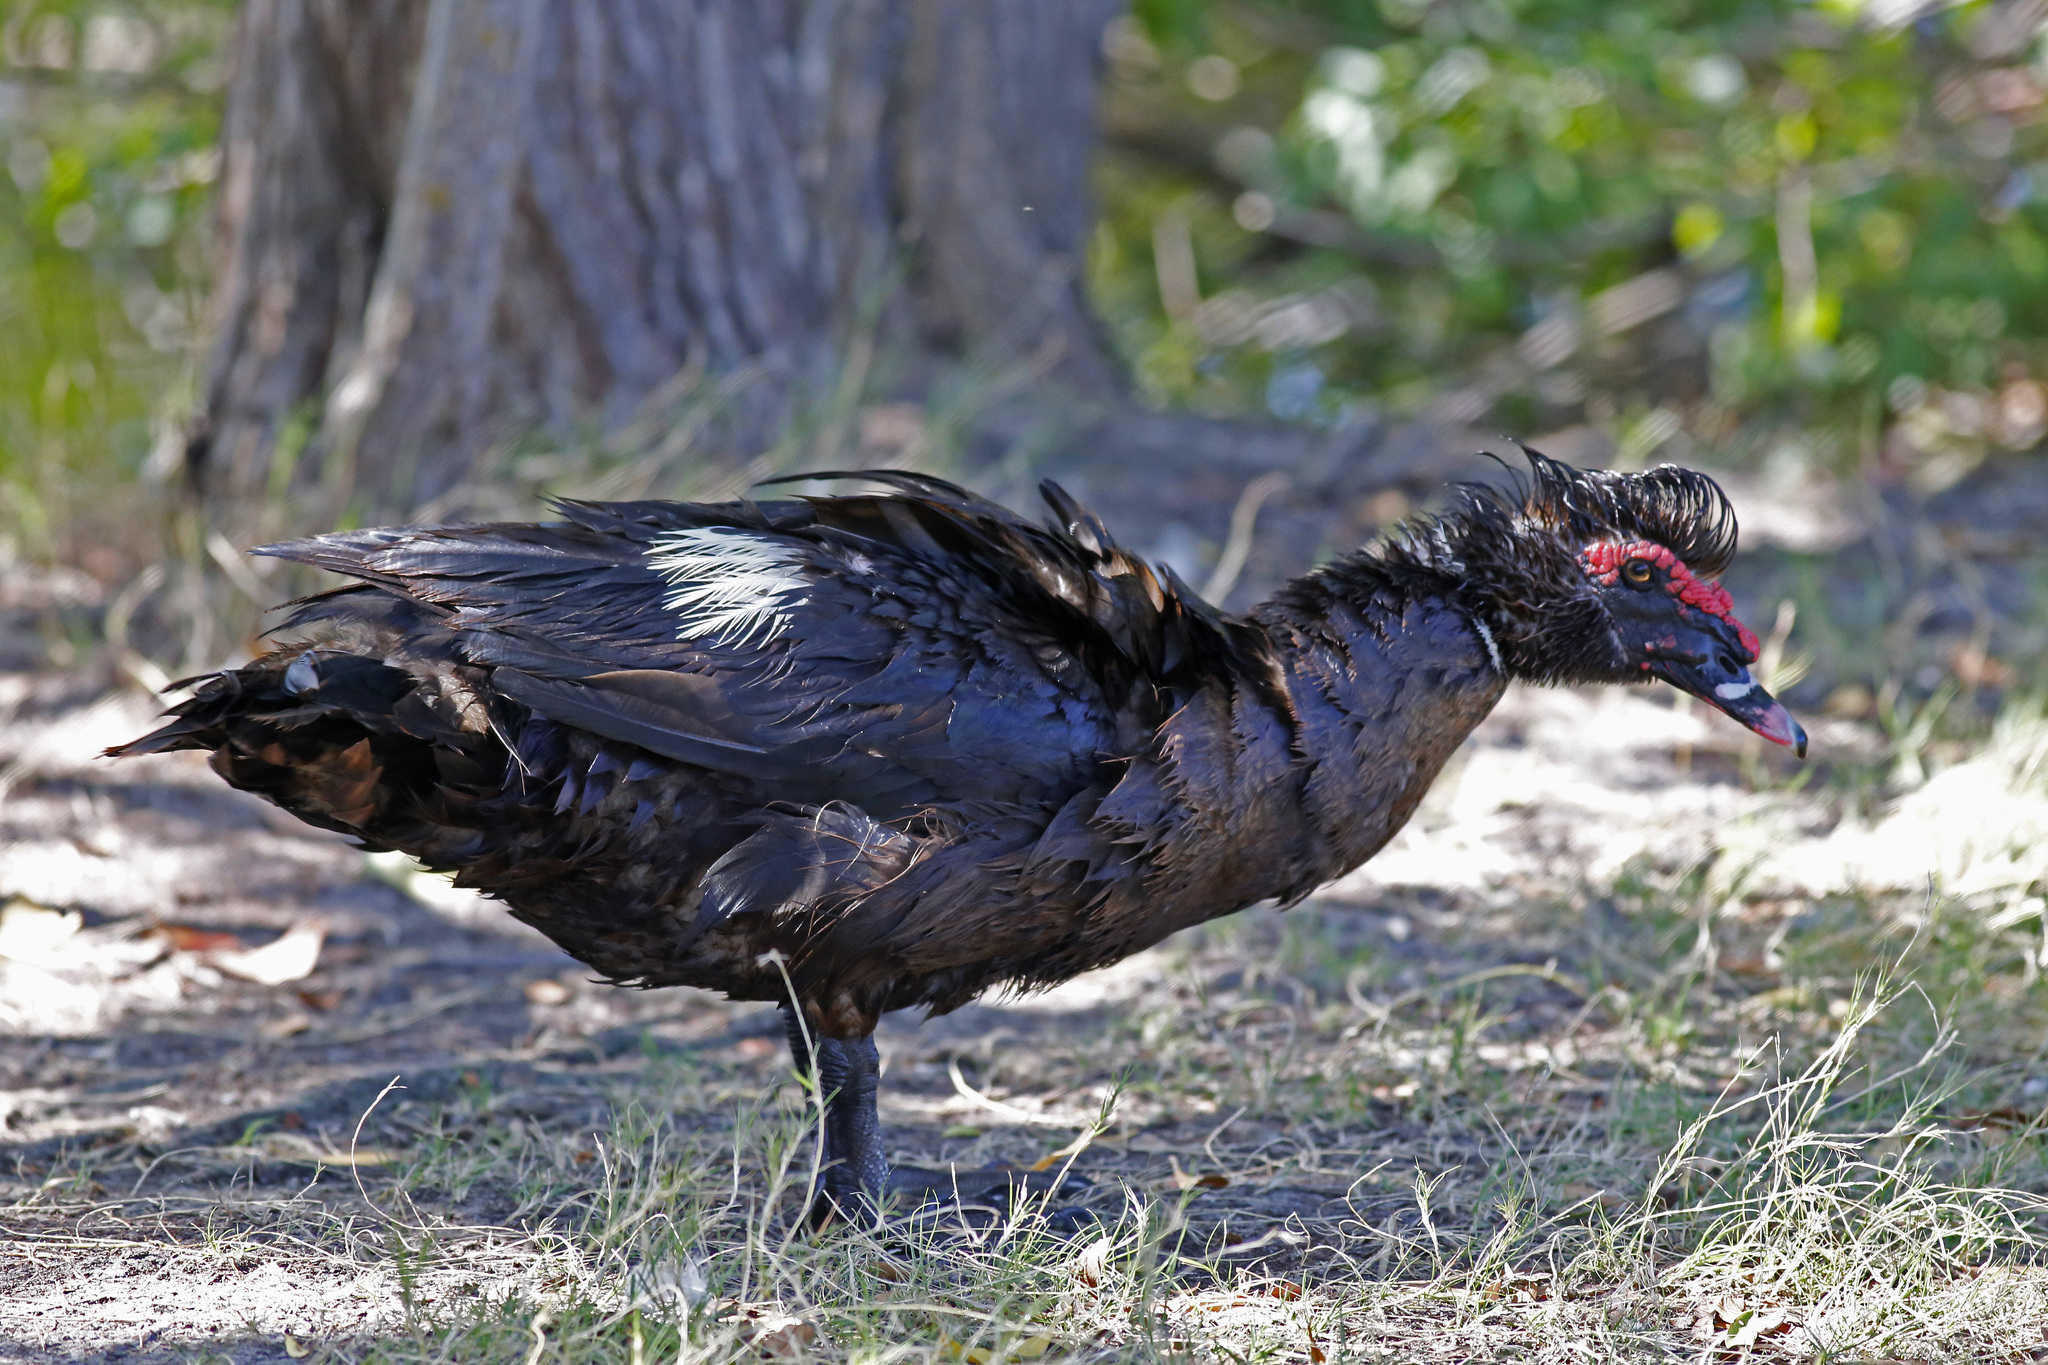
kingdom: Animalia
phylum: Chordata
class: Aves
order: Anseriformes
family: Anatidae
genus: Cairina
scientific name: Cairina moschata
